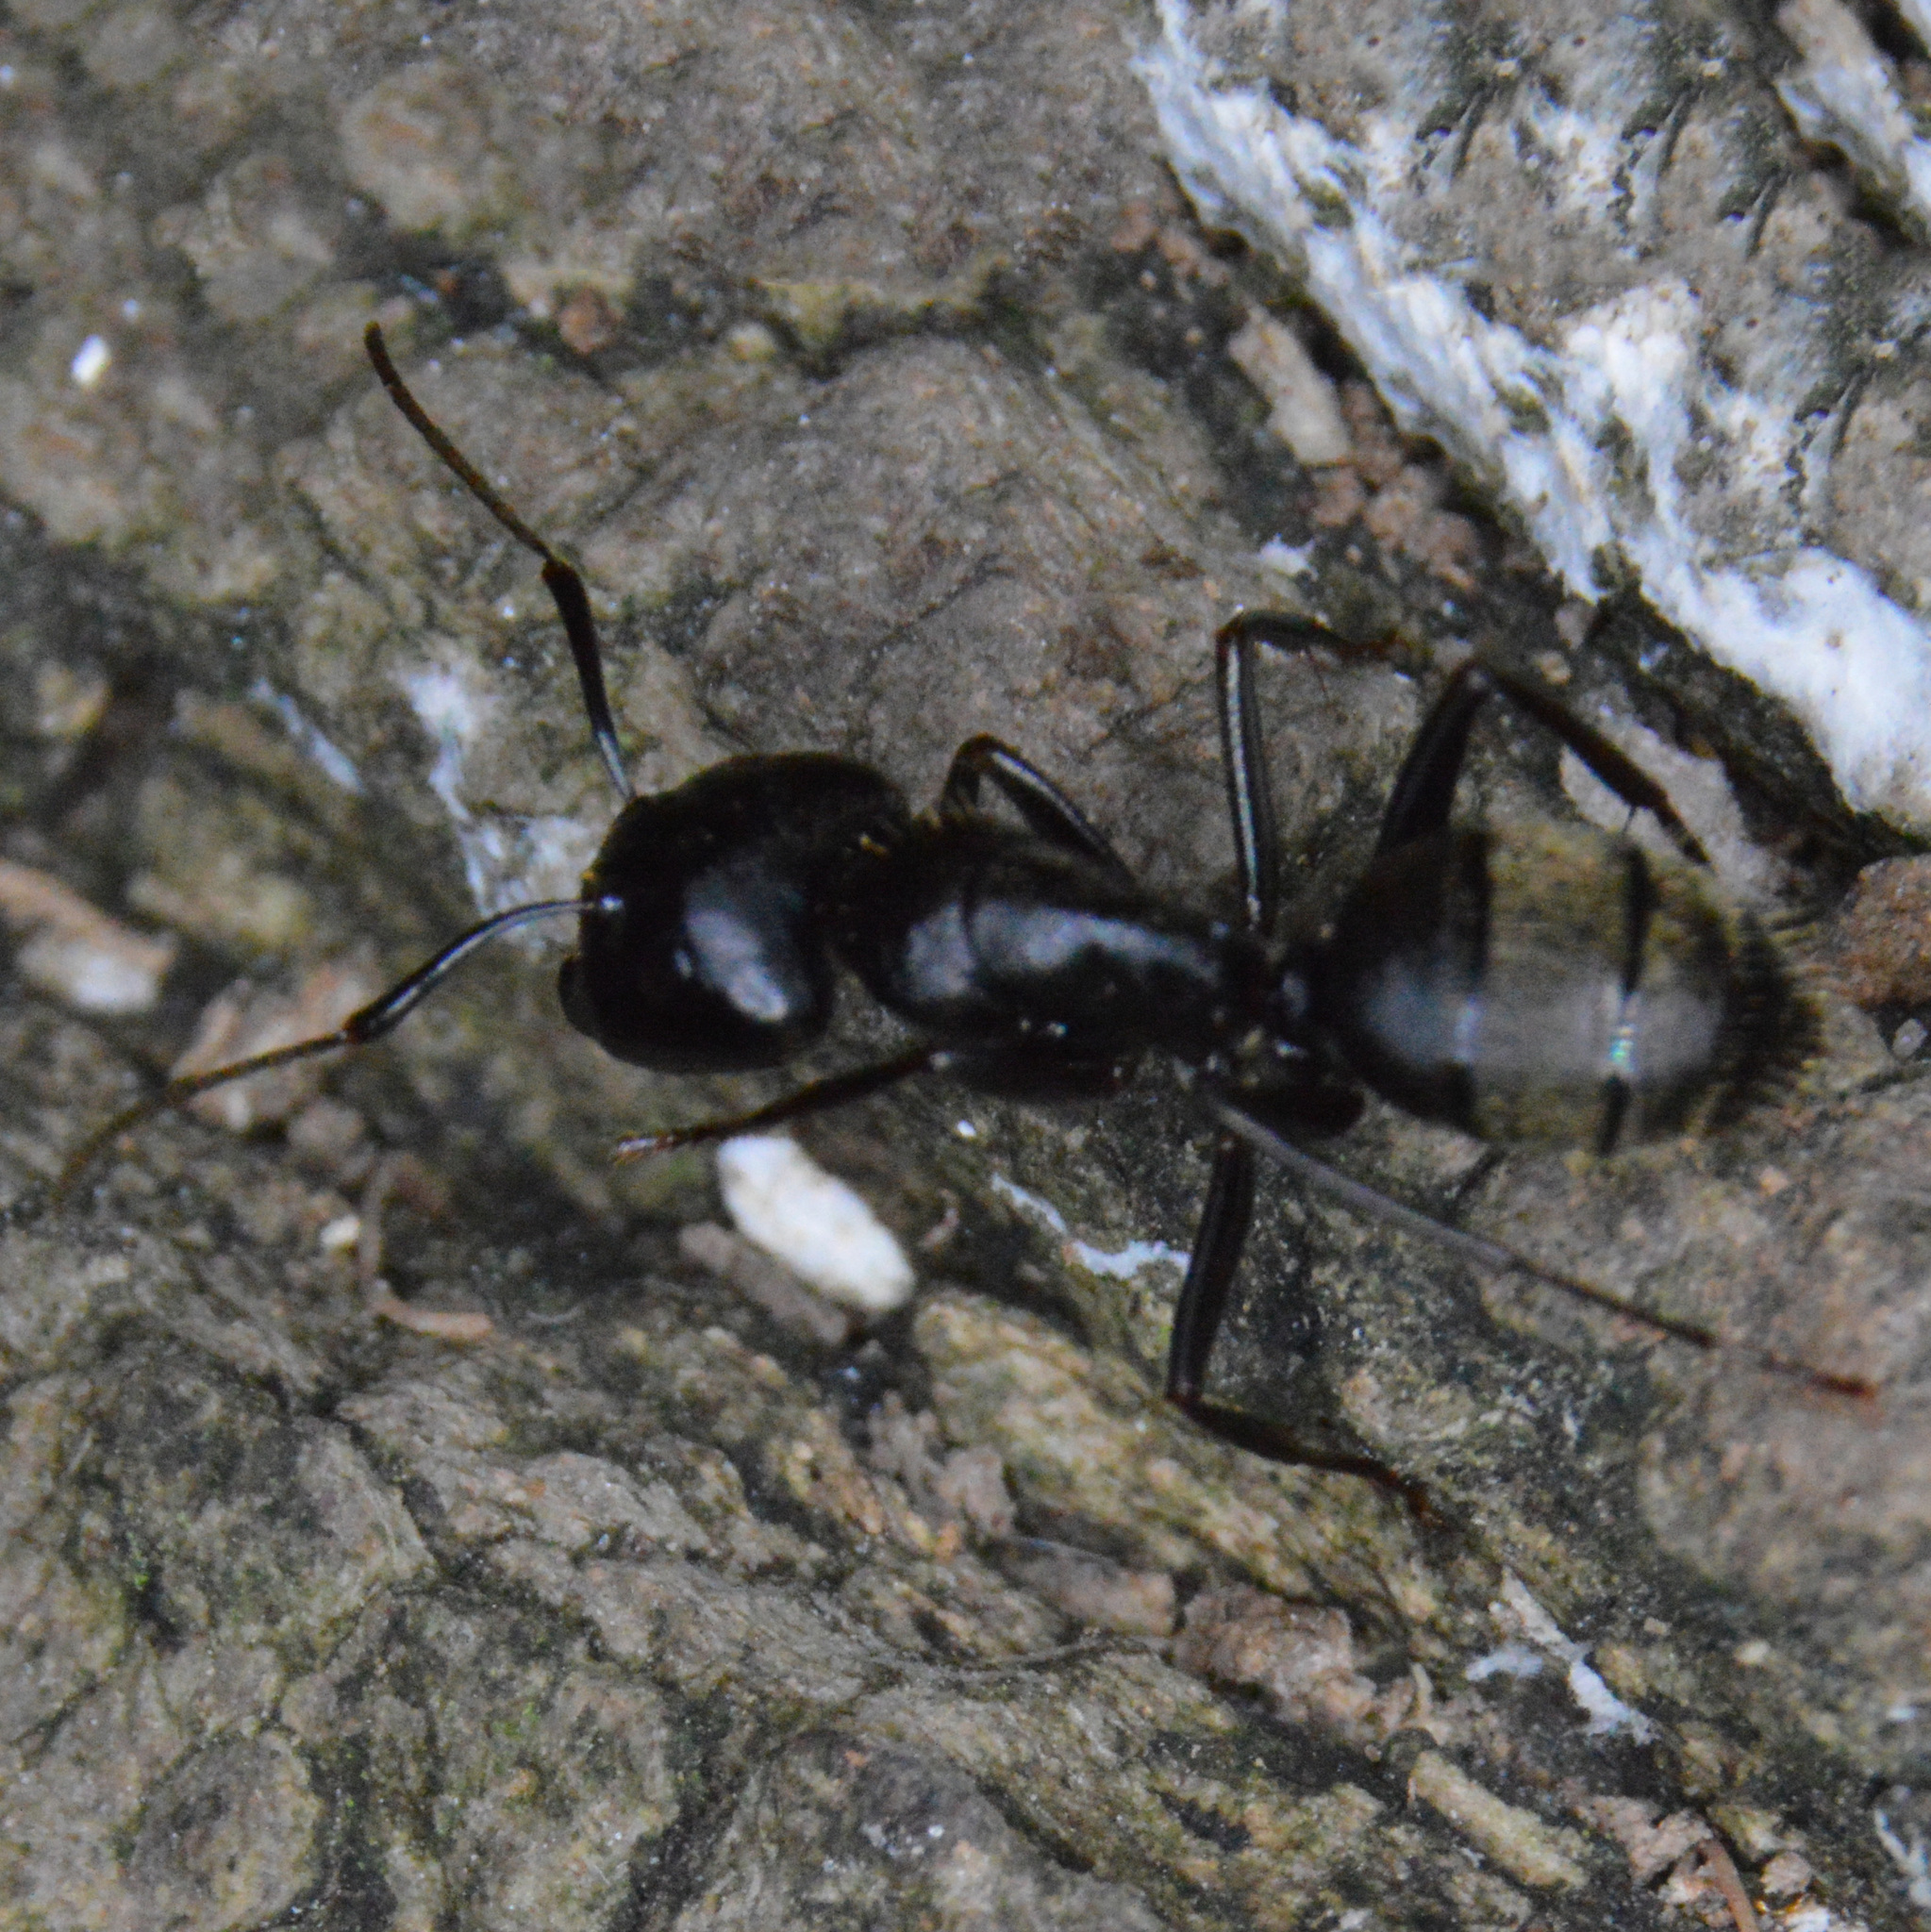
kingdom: Animalia
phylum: Arthropoda
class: Insecta
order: Hymenoptera
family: Formicidae
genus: Camponotus
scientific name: Camponotus pennsylvanicus
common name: Black carpenter ant
